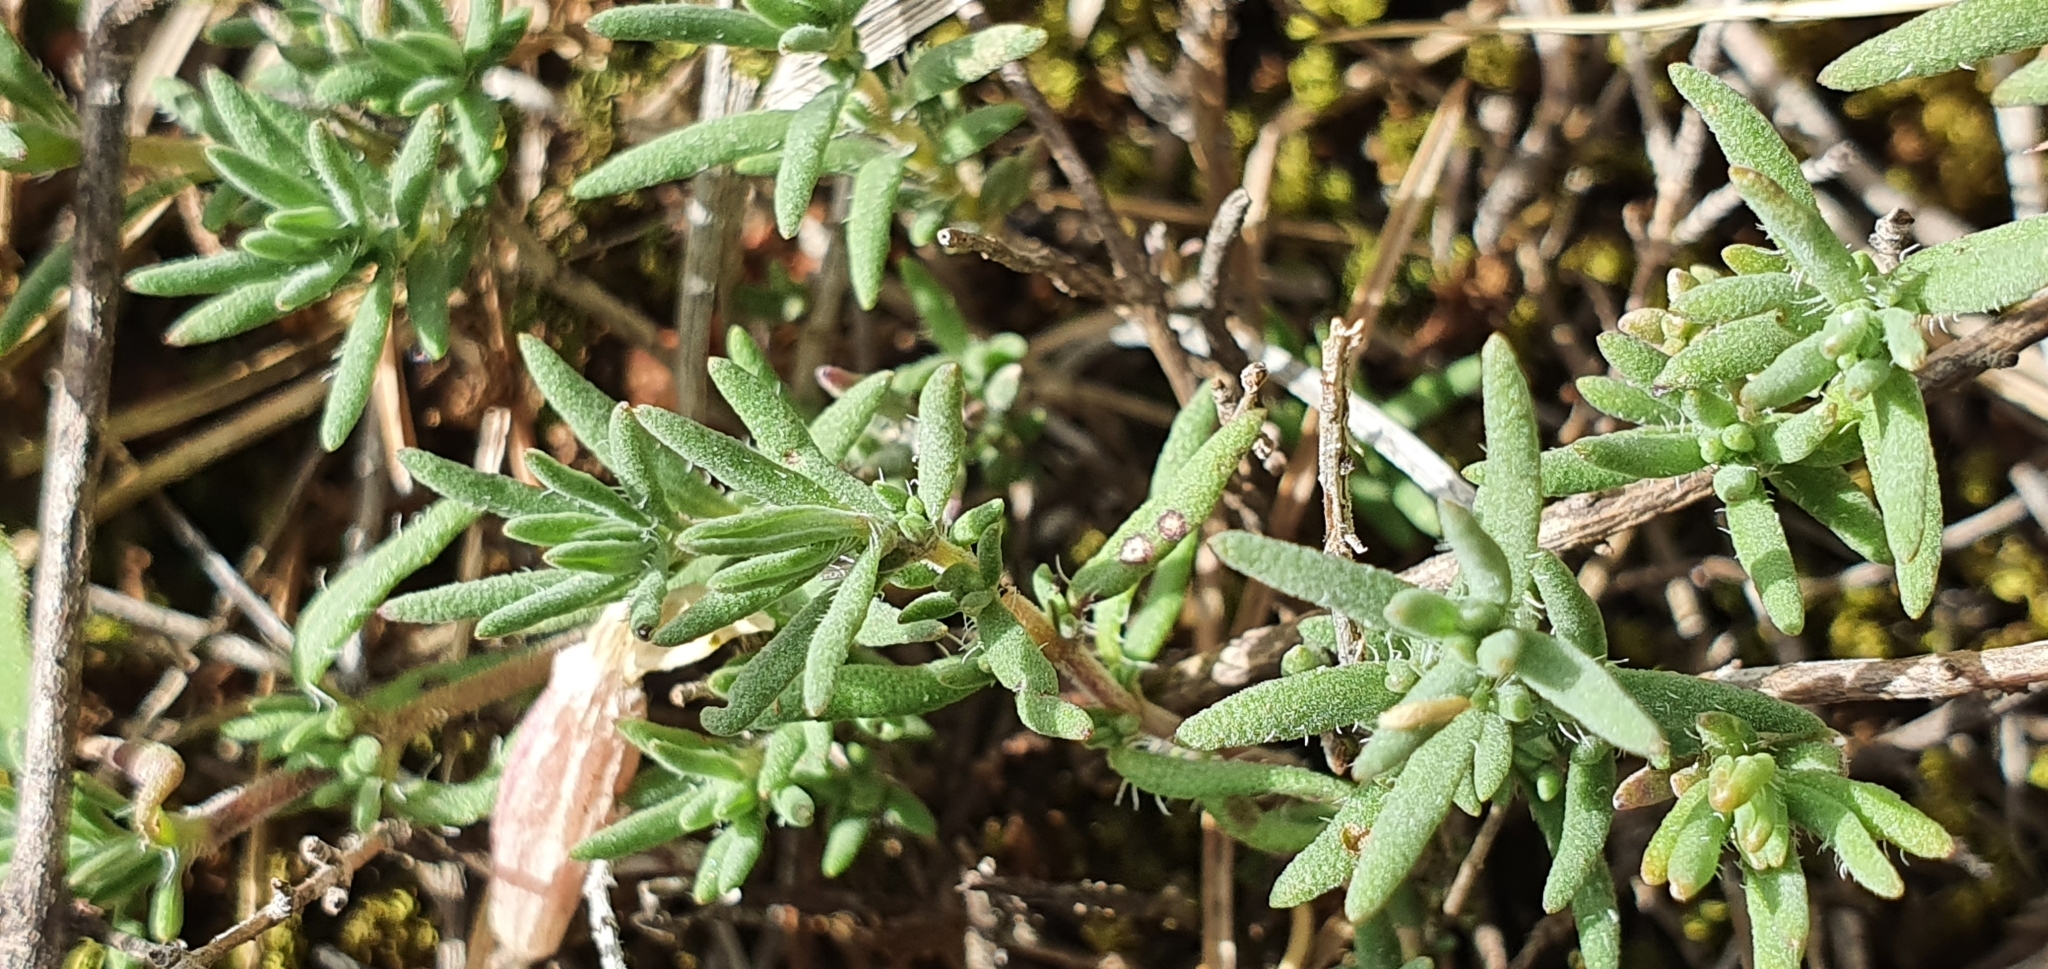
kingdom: Plantae
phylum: Tracheophyta
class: Magnoliopsida
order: Lamiales
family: Lamiaceae
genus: Thymus
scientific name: Thymus willdenowii
